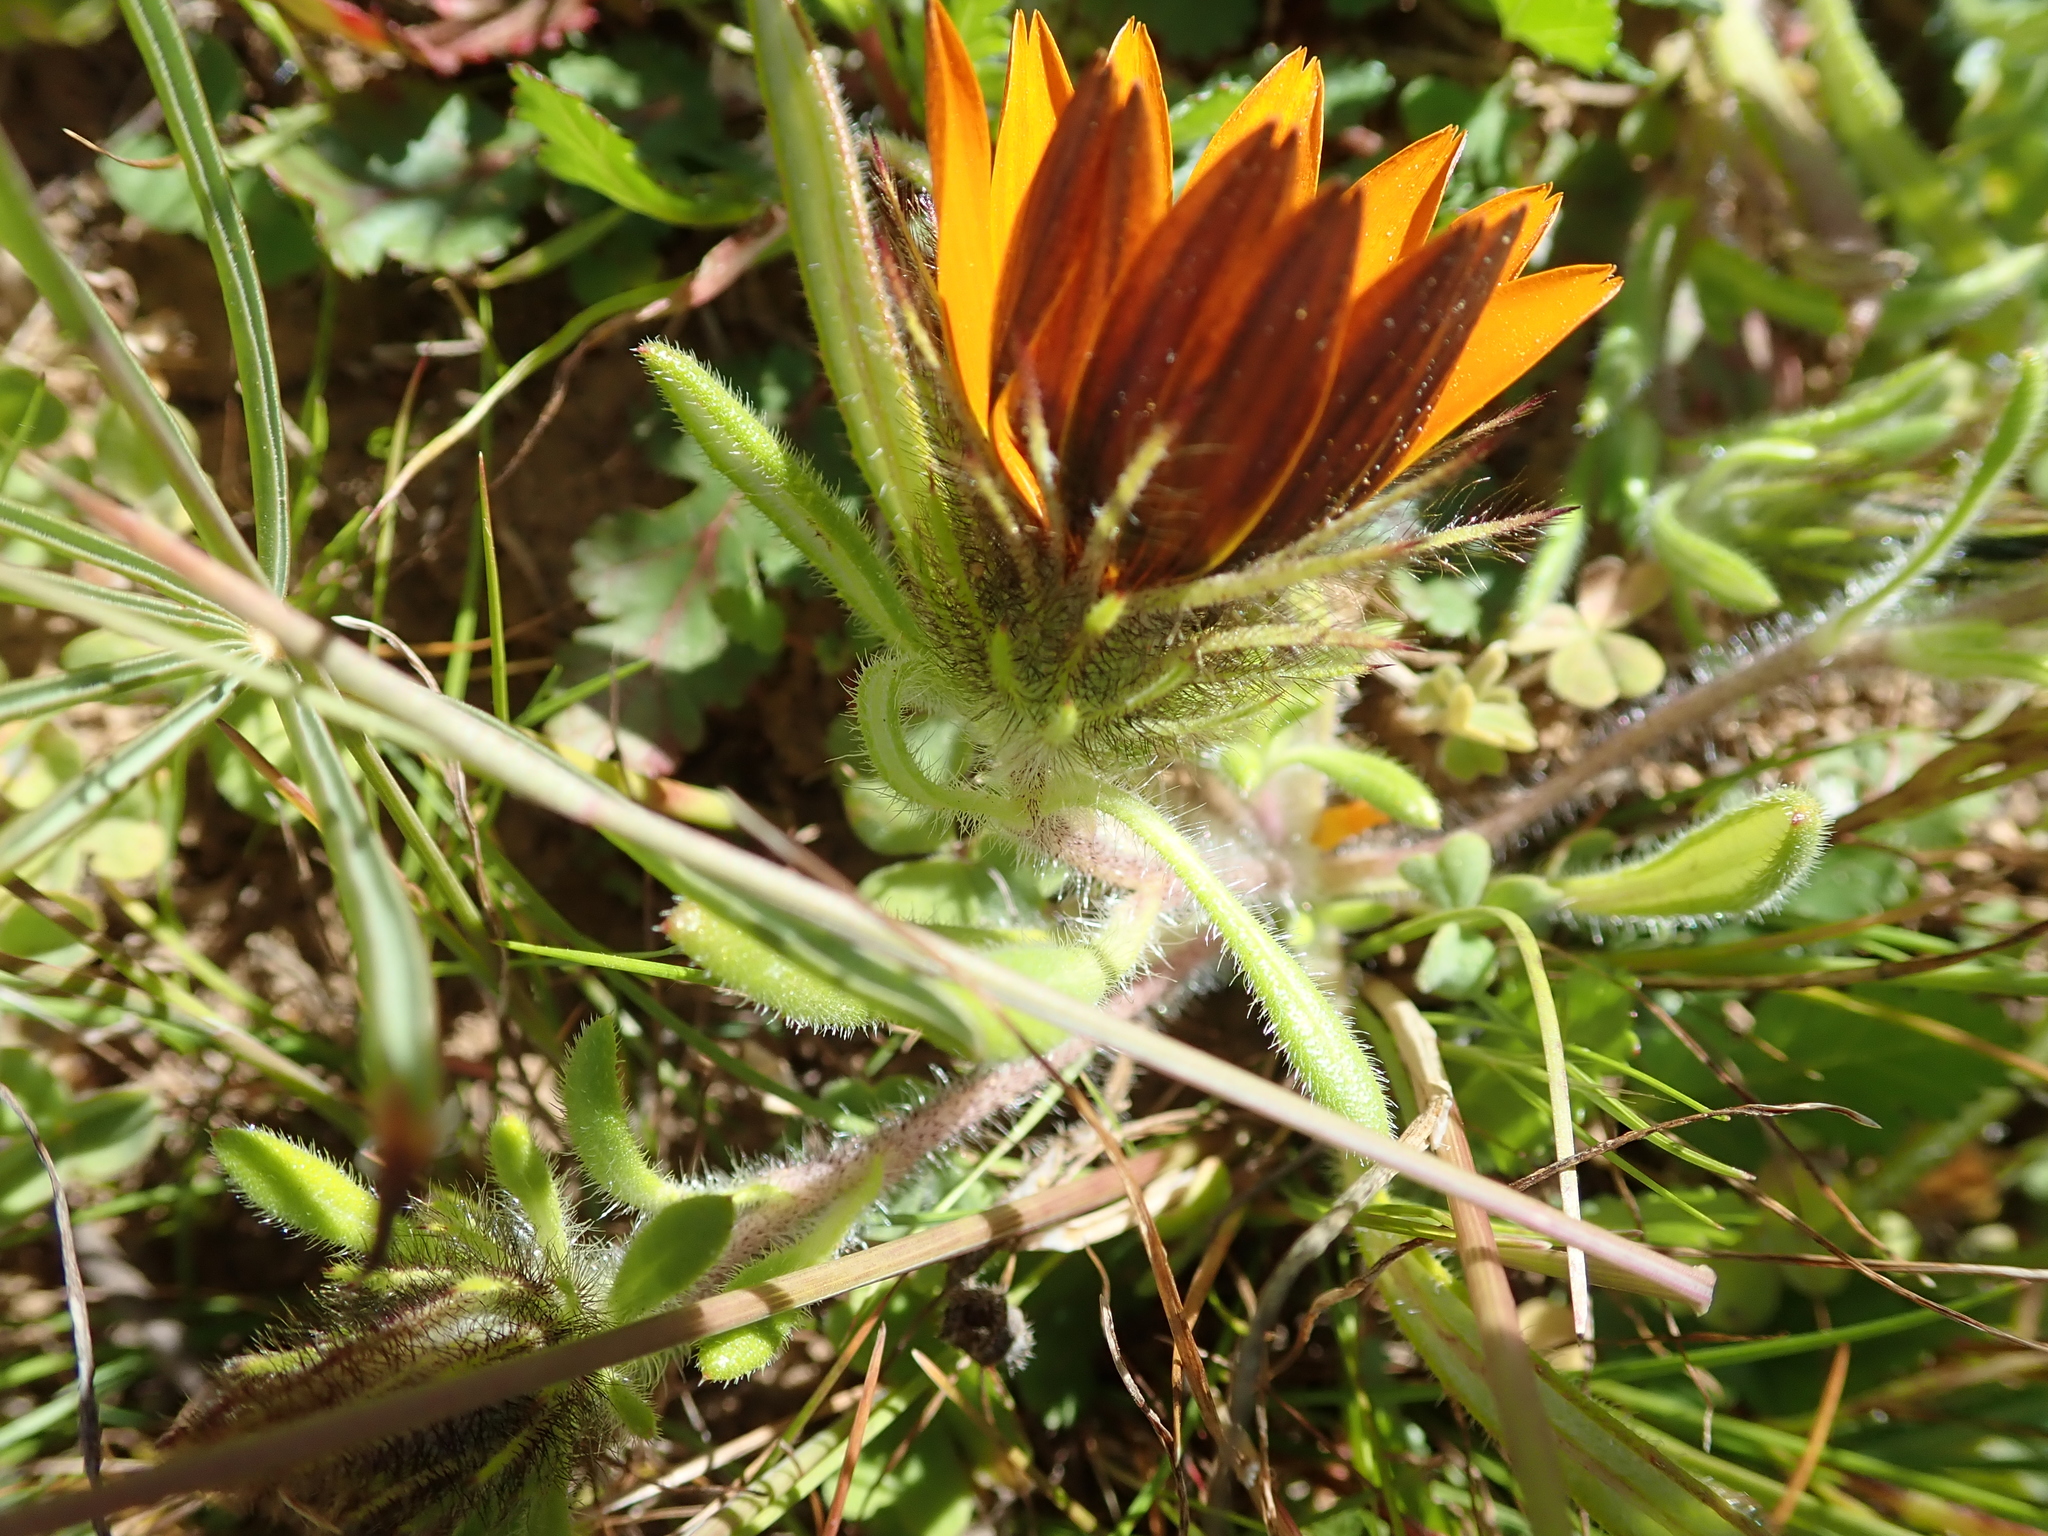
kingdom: Plantae
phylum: Tracheophyta
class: Magnoliopsida
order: Asterales
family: Asteraceae
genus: Gorteria
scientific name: Gorteria diffusa
